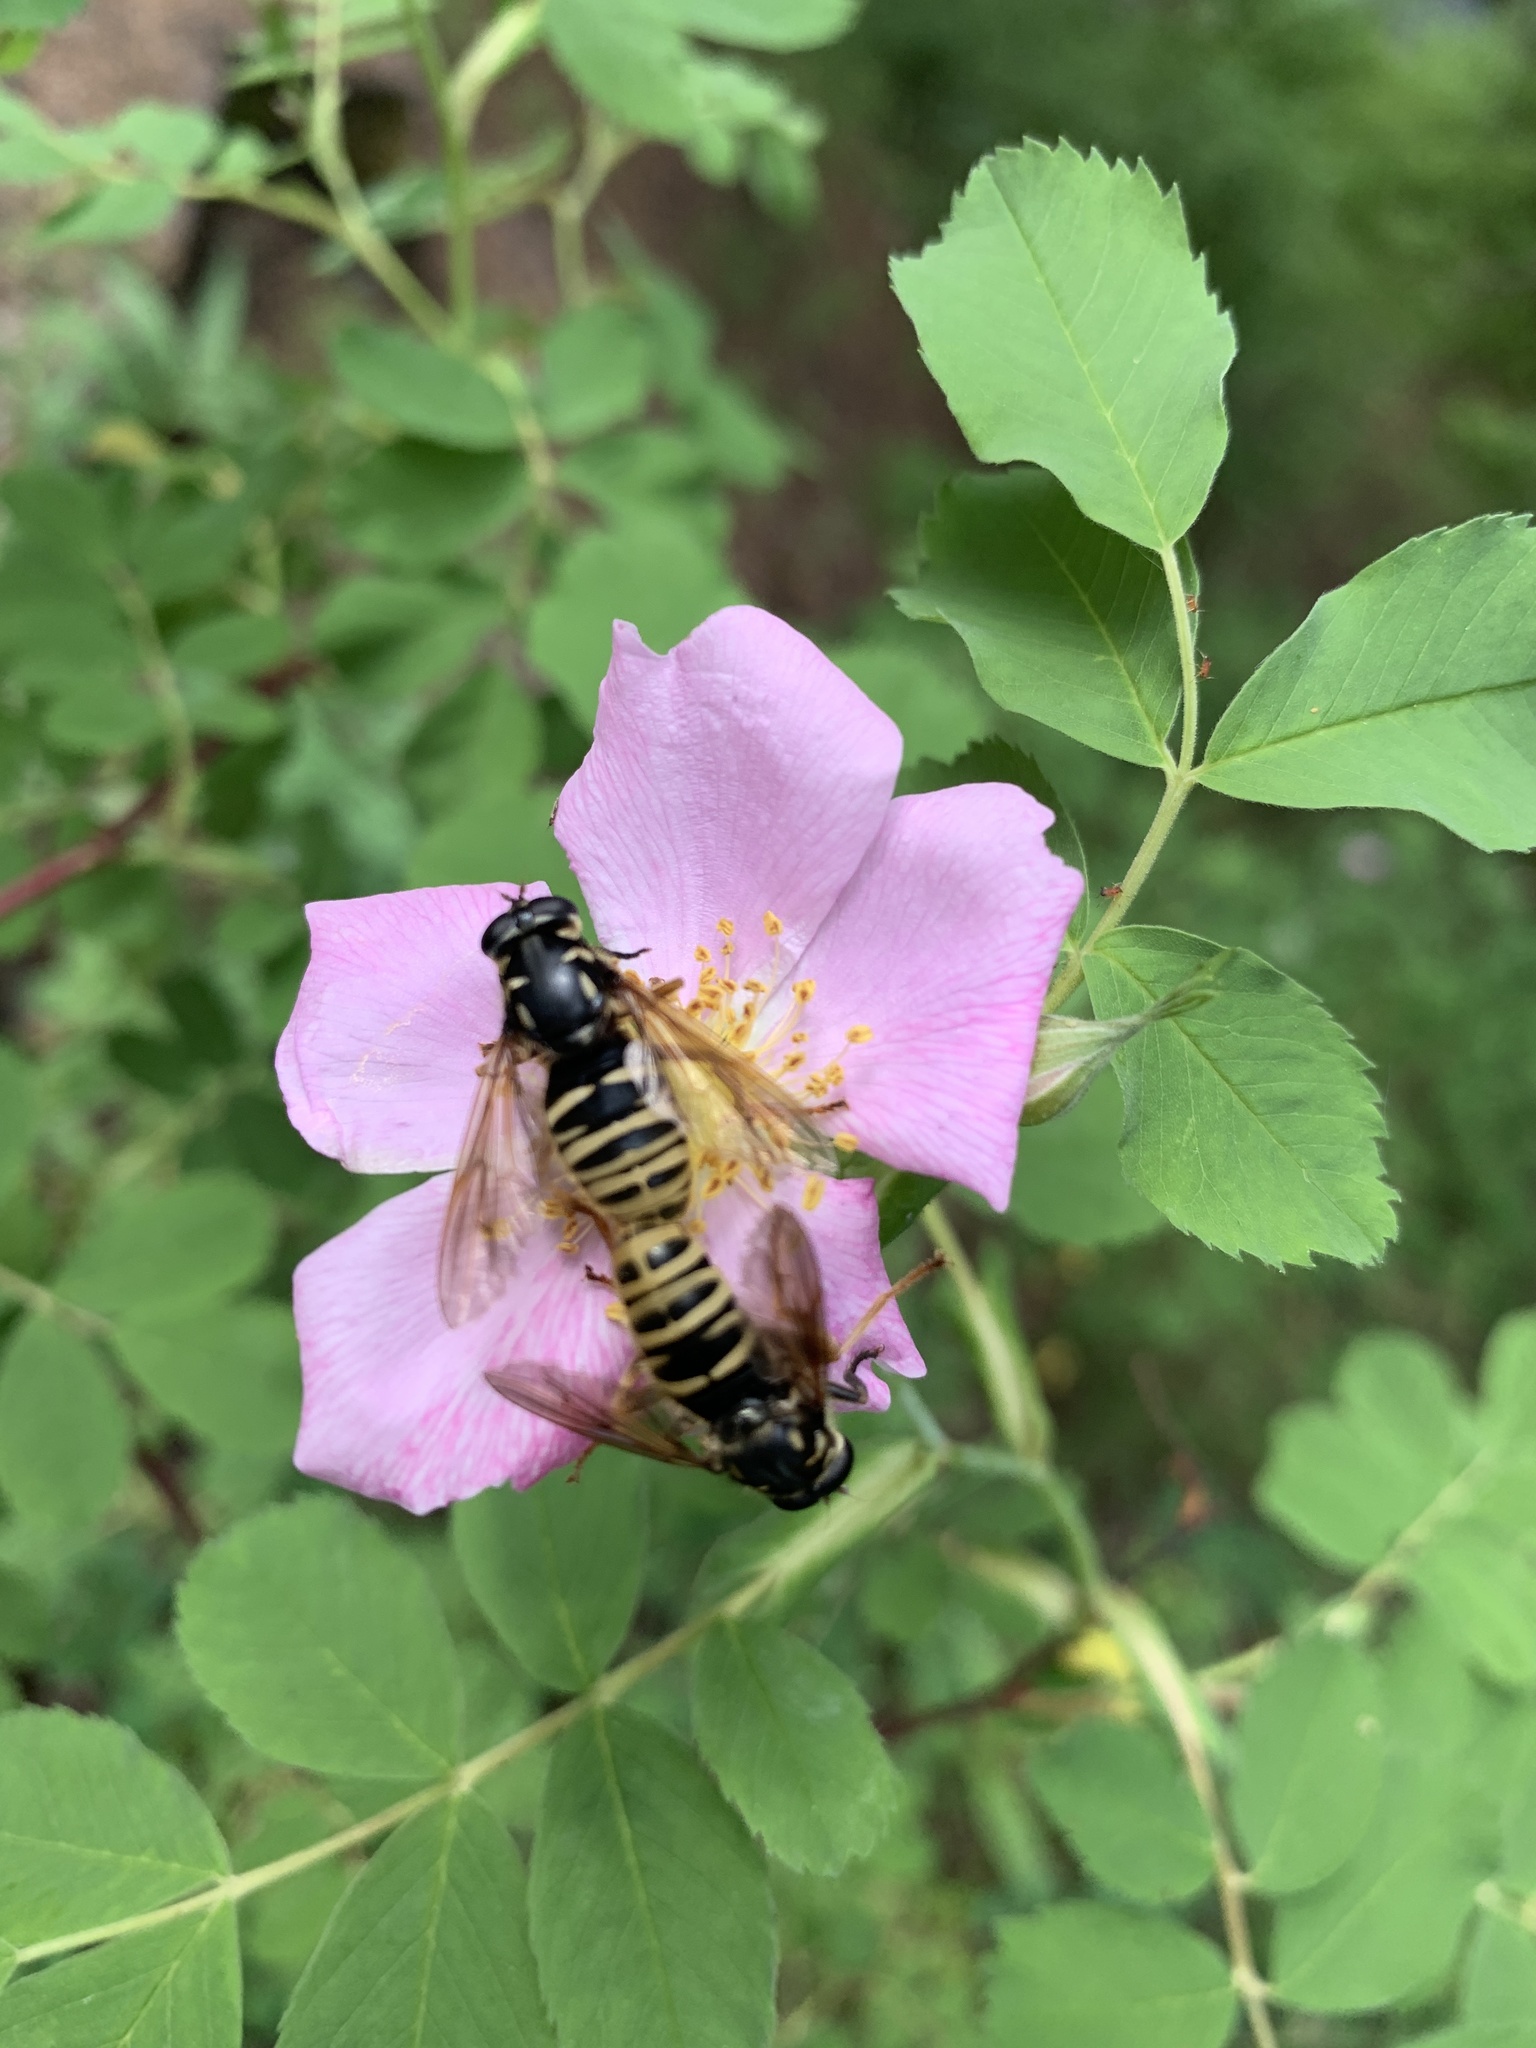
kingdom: Animalia
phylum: Arthropoda
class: Insecta
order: Diptera
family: Syrphidae
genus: Temnostoma
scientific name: Temnostoma excentricum
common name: Black-spotted falsehorn
